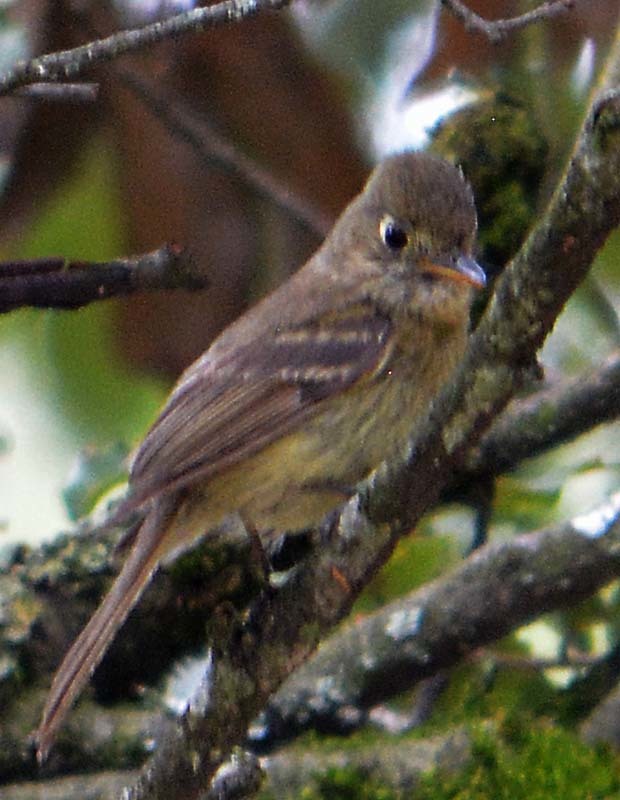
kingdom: Animalia
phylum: Chordata
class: Aves
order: Passeriformes
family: Tyrannidae
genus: Empidonax
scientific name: Empidonax fulvifrons
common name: Buff-breasted flycatcher
